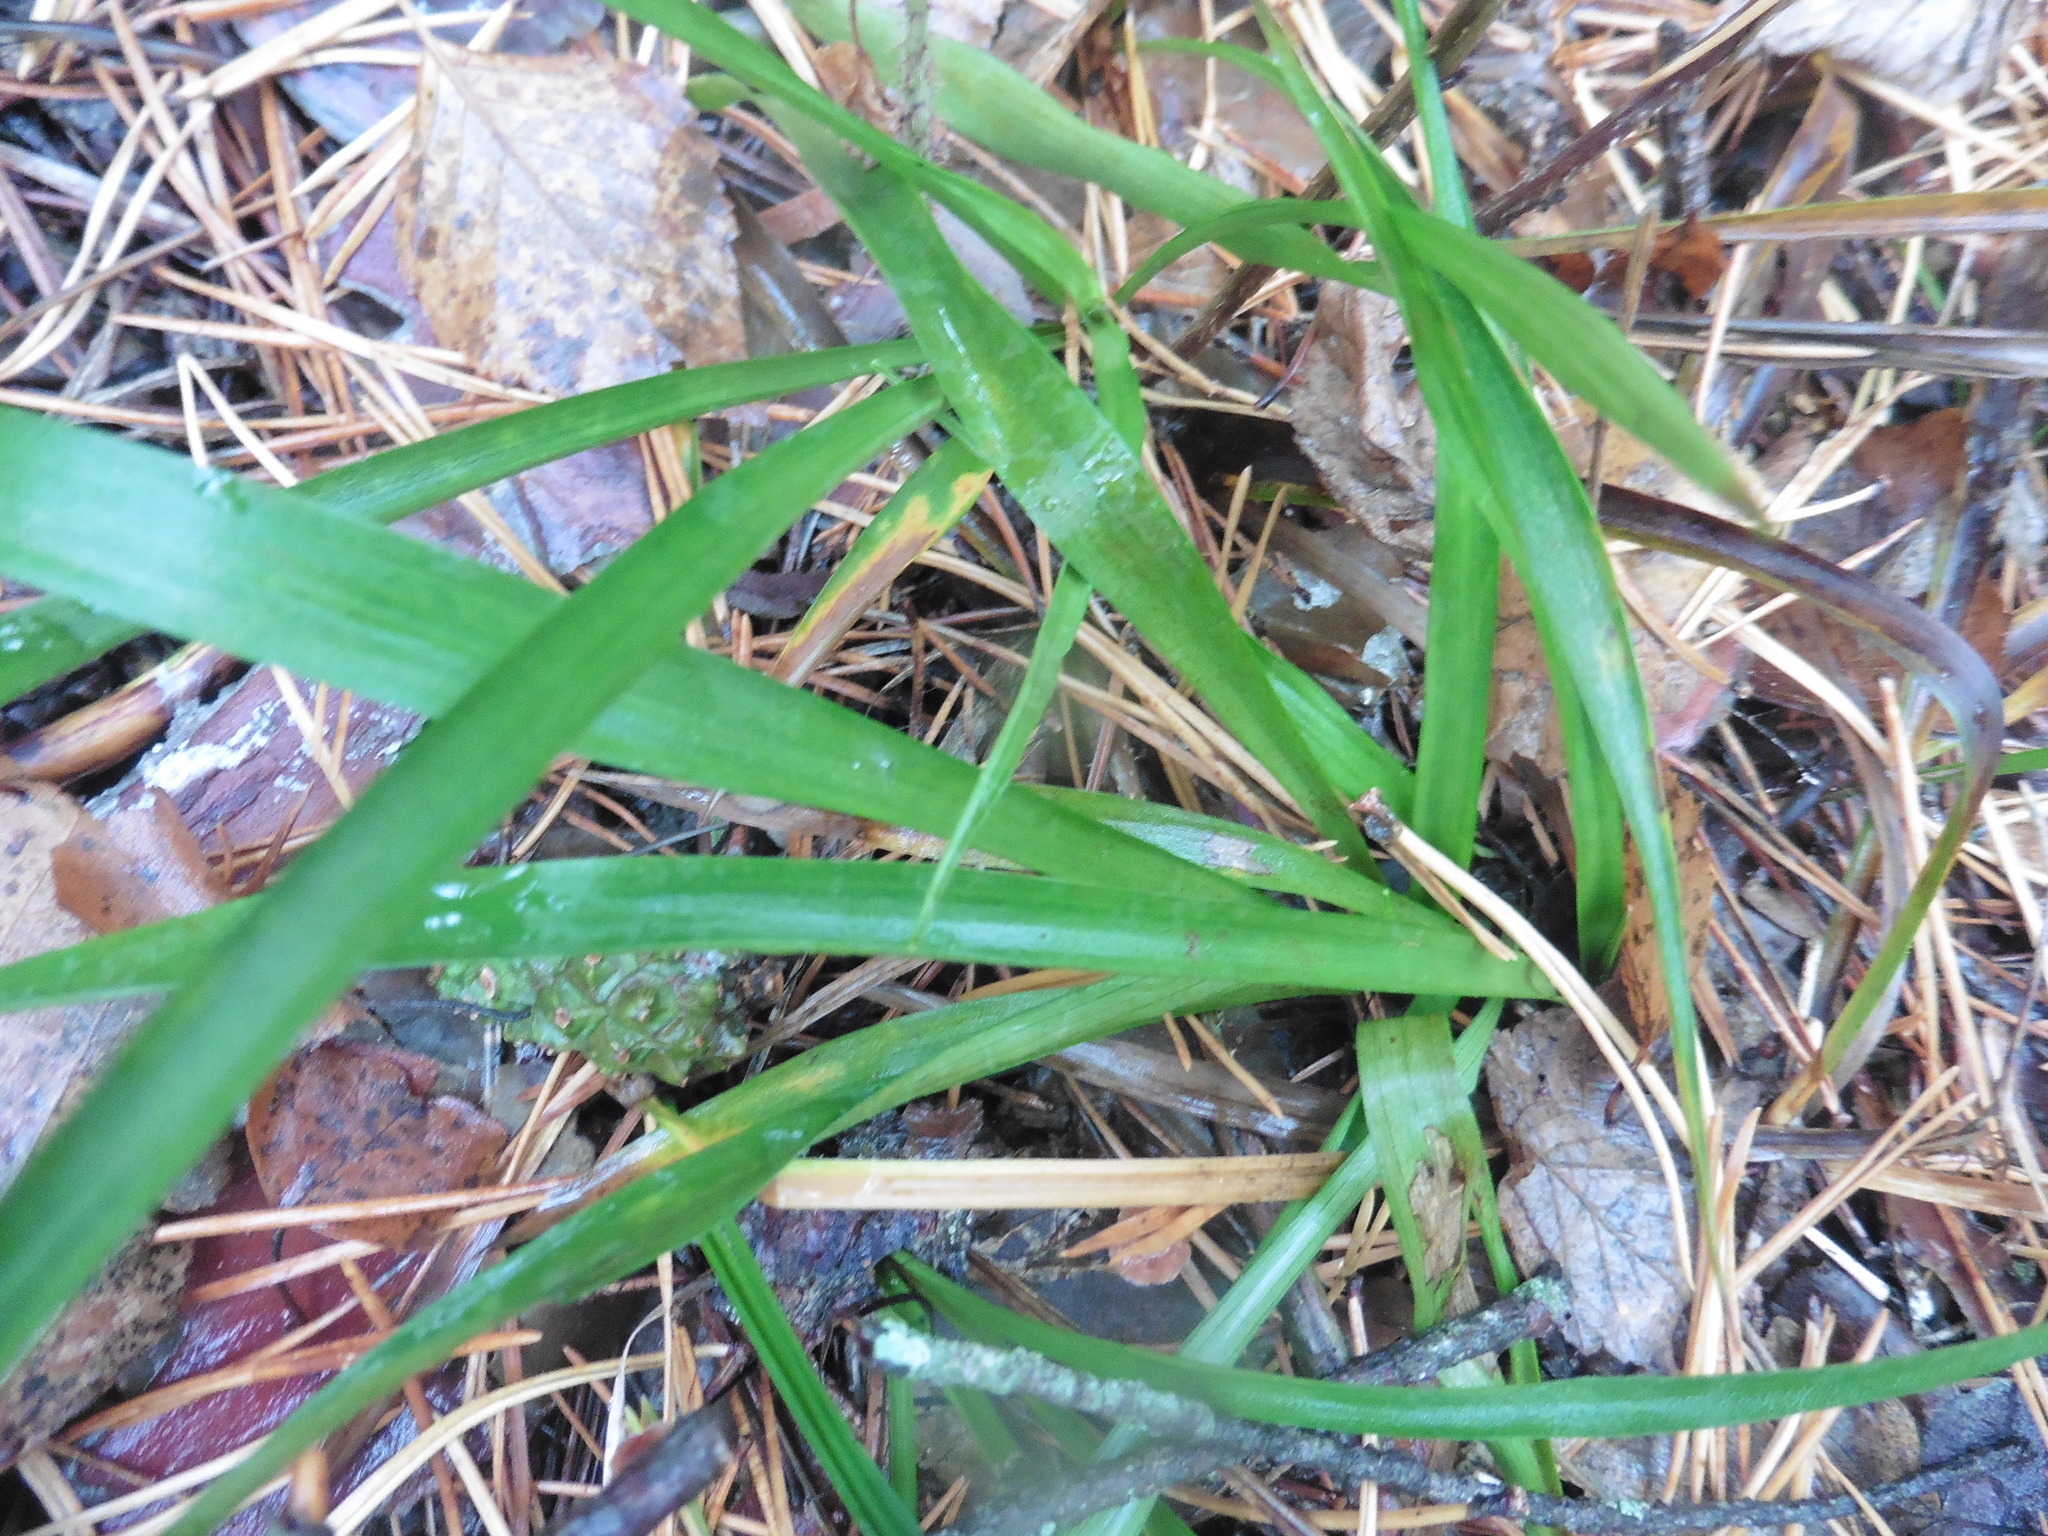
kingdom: Plantae
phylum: Tracheophyta
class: Liliopsida
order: Poales
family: Juncaceae
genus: Luzula
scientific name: Luzula pilosa
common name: Hairy wood-rush
